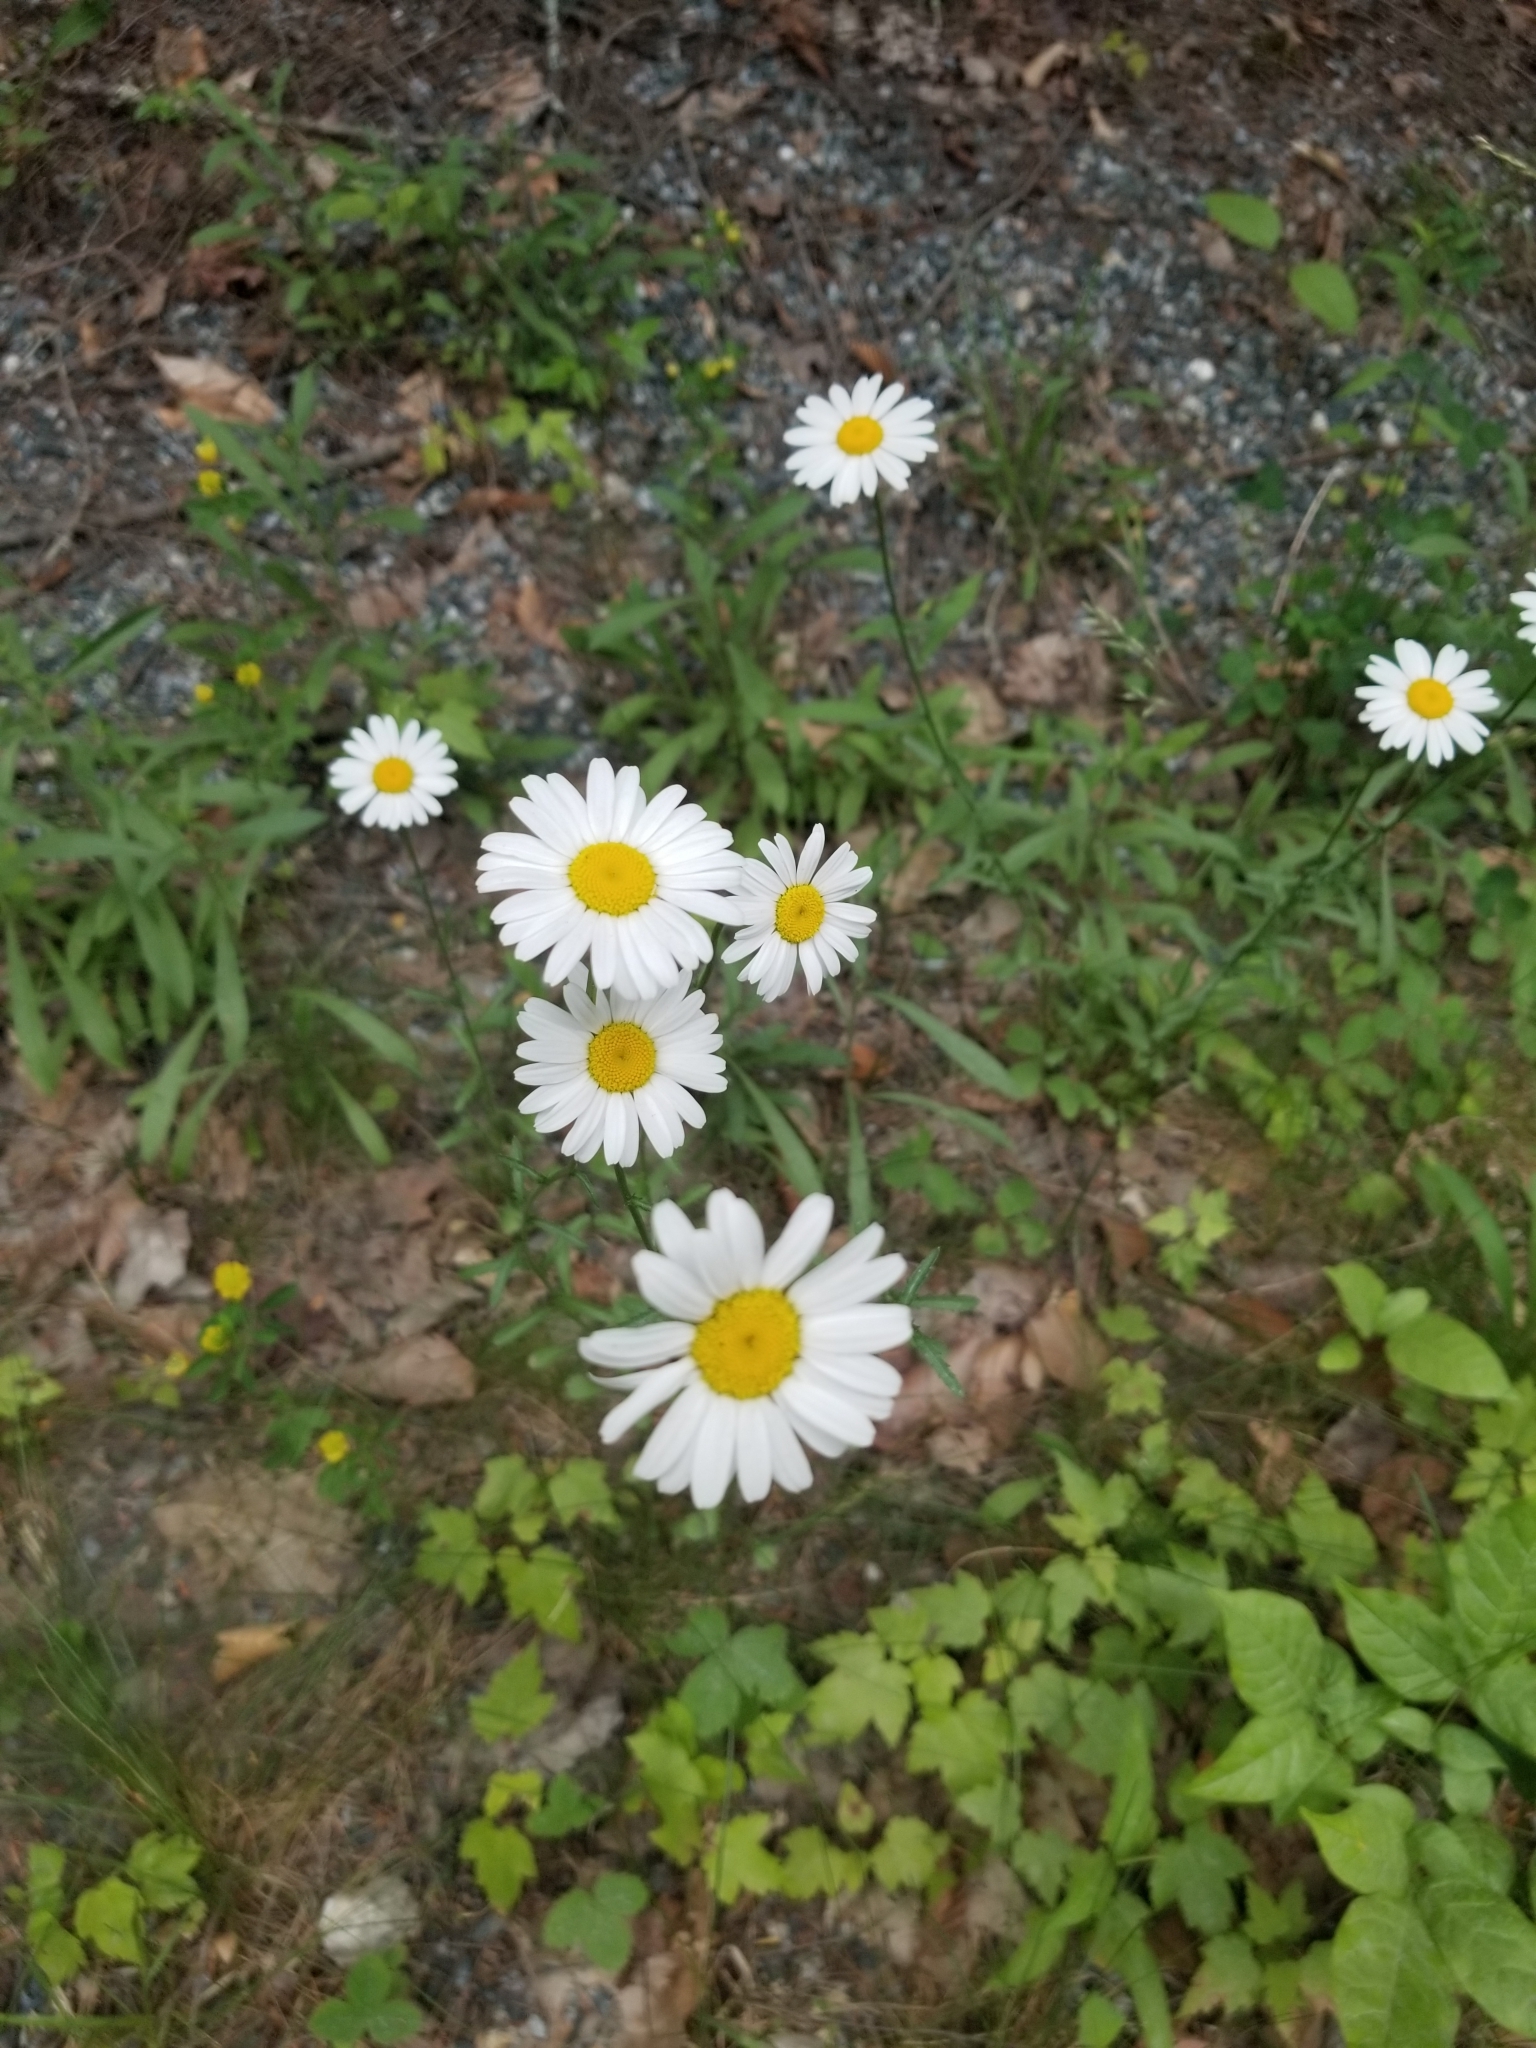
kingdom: Plantae
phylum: Tracheophyta
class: Magnoliopsida
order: Asterales
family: Asteraceae
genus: Leucanthemum
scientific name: Leucanthemum vulgare
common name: Oxeye daisy
